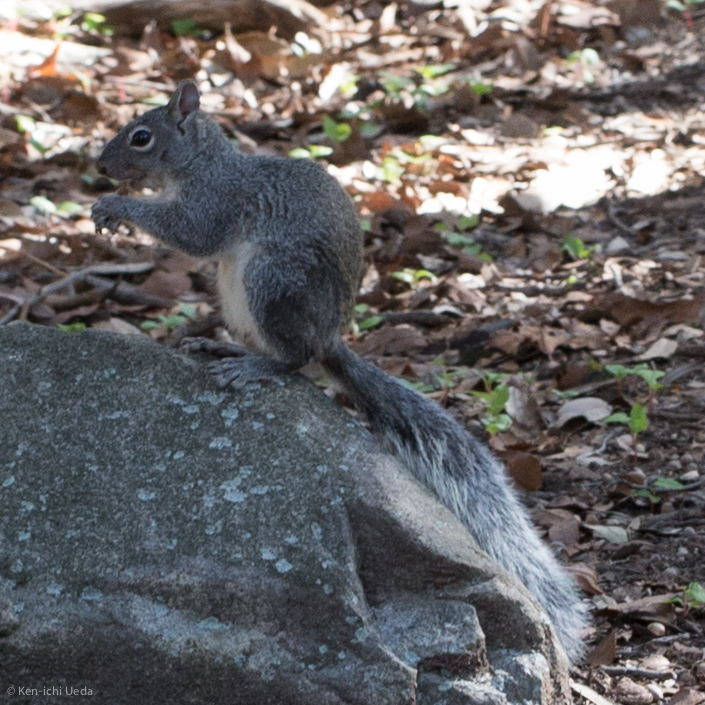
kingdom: Animalia
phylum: Chordata
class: Mammalia
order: Rodentia
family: Sciuridae
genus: Sciurus
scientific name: Sciurus arizonensis
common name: Arizona gray squirrel
